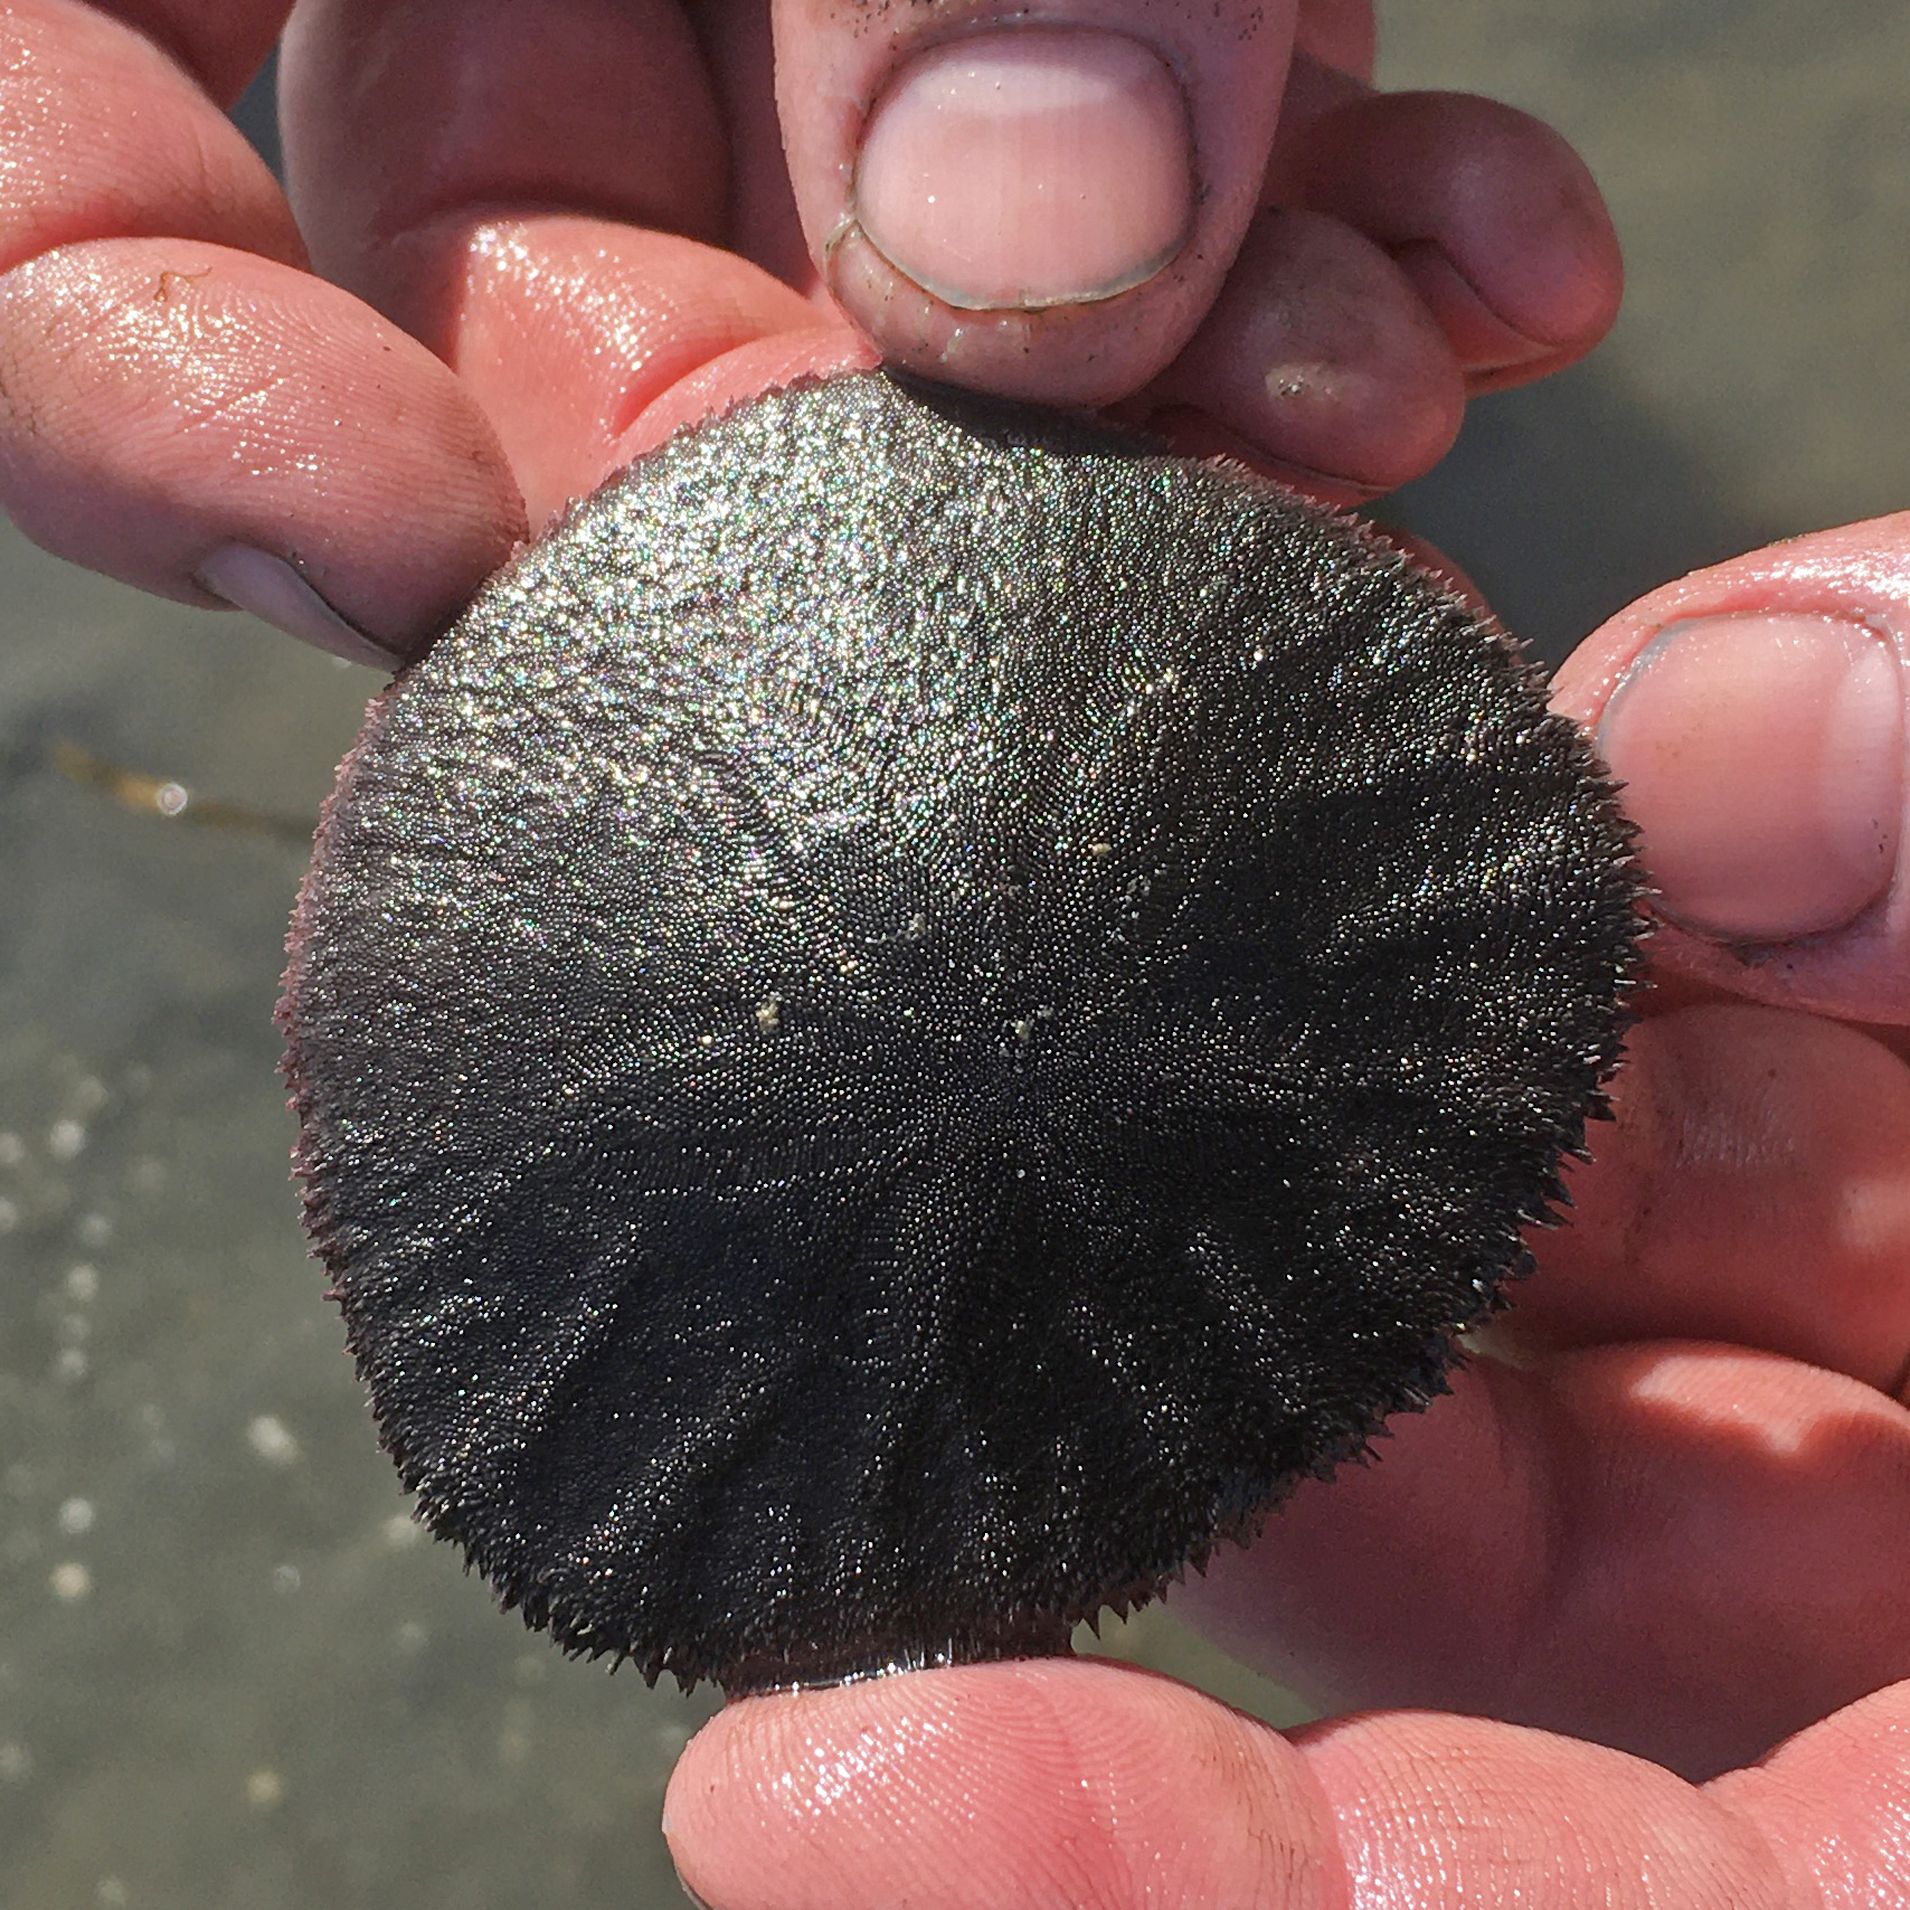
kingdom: Animalia
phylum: Echinodermata
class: Echinoidea
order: Echinolampadacea
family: Dendrasteridae
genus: Dendraster
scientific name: Dendraster excentricus
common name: Eccentric sand dollar sea urchin
